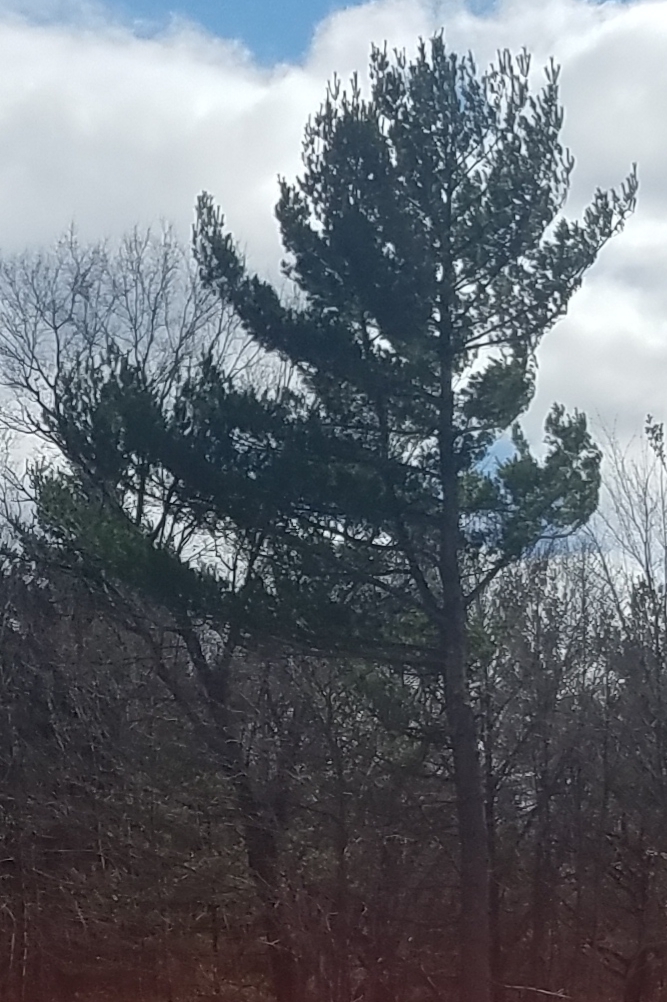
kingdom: Plantae
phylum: Tracheophyta
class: Pinopsida
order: Pinales
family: Pinaceae
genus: Pinus
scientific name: Pinus strobus
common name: Weymouth pine
